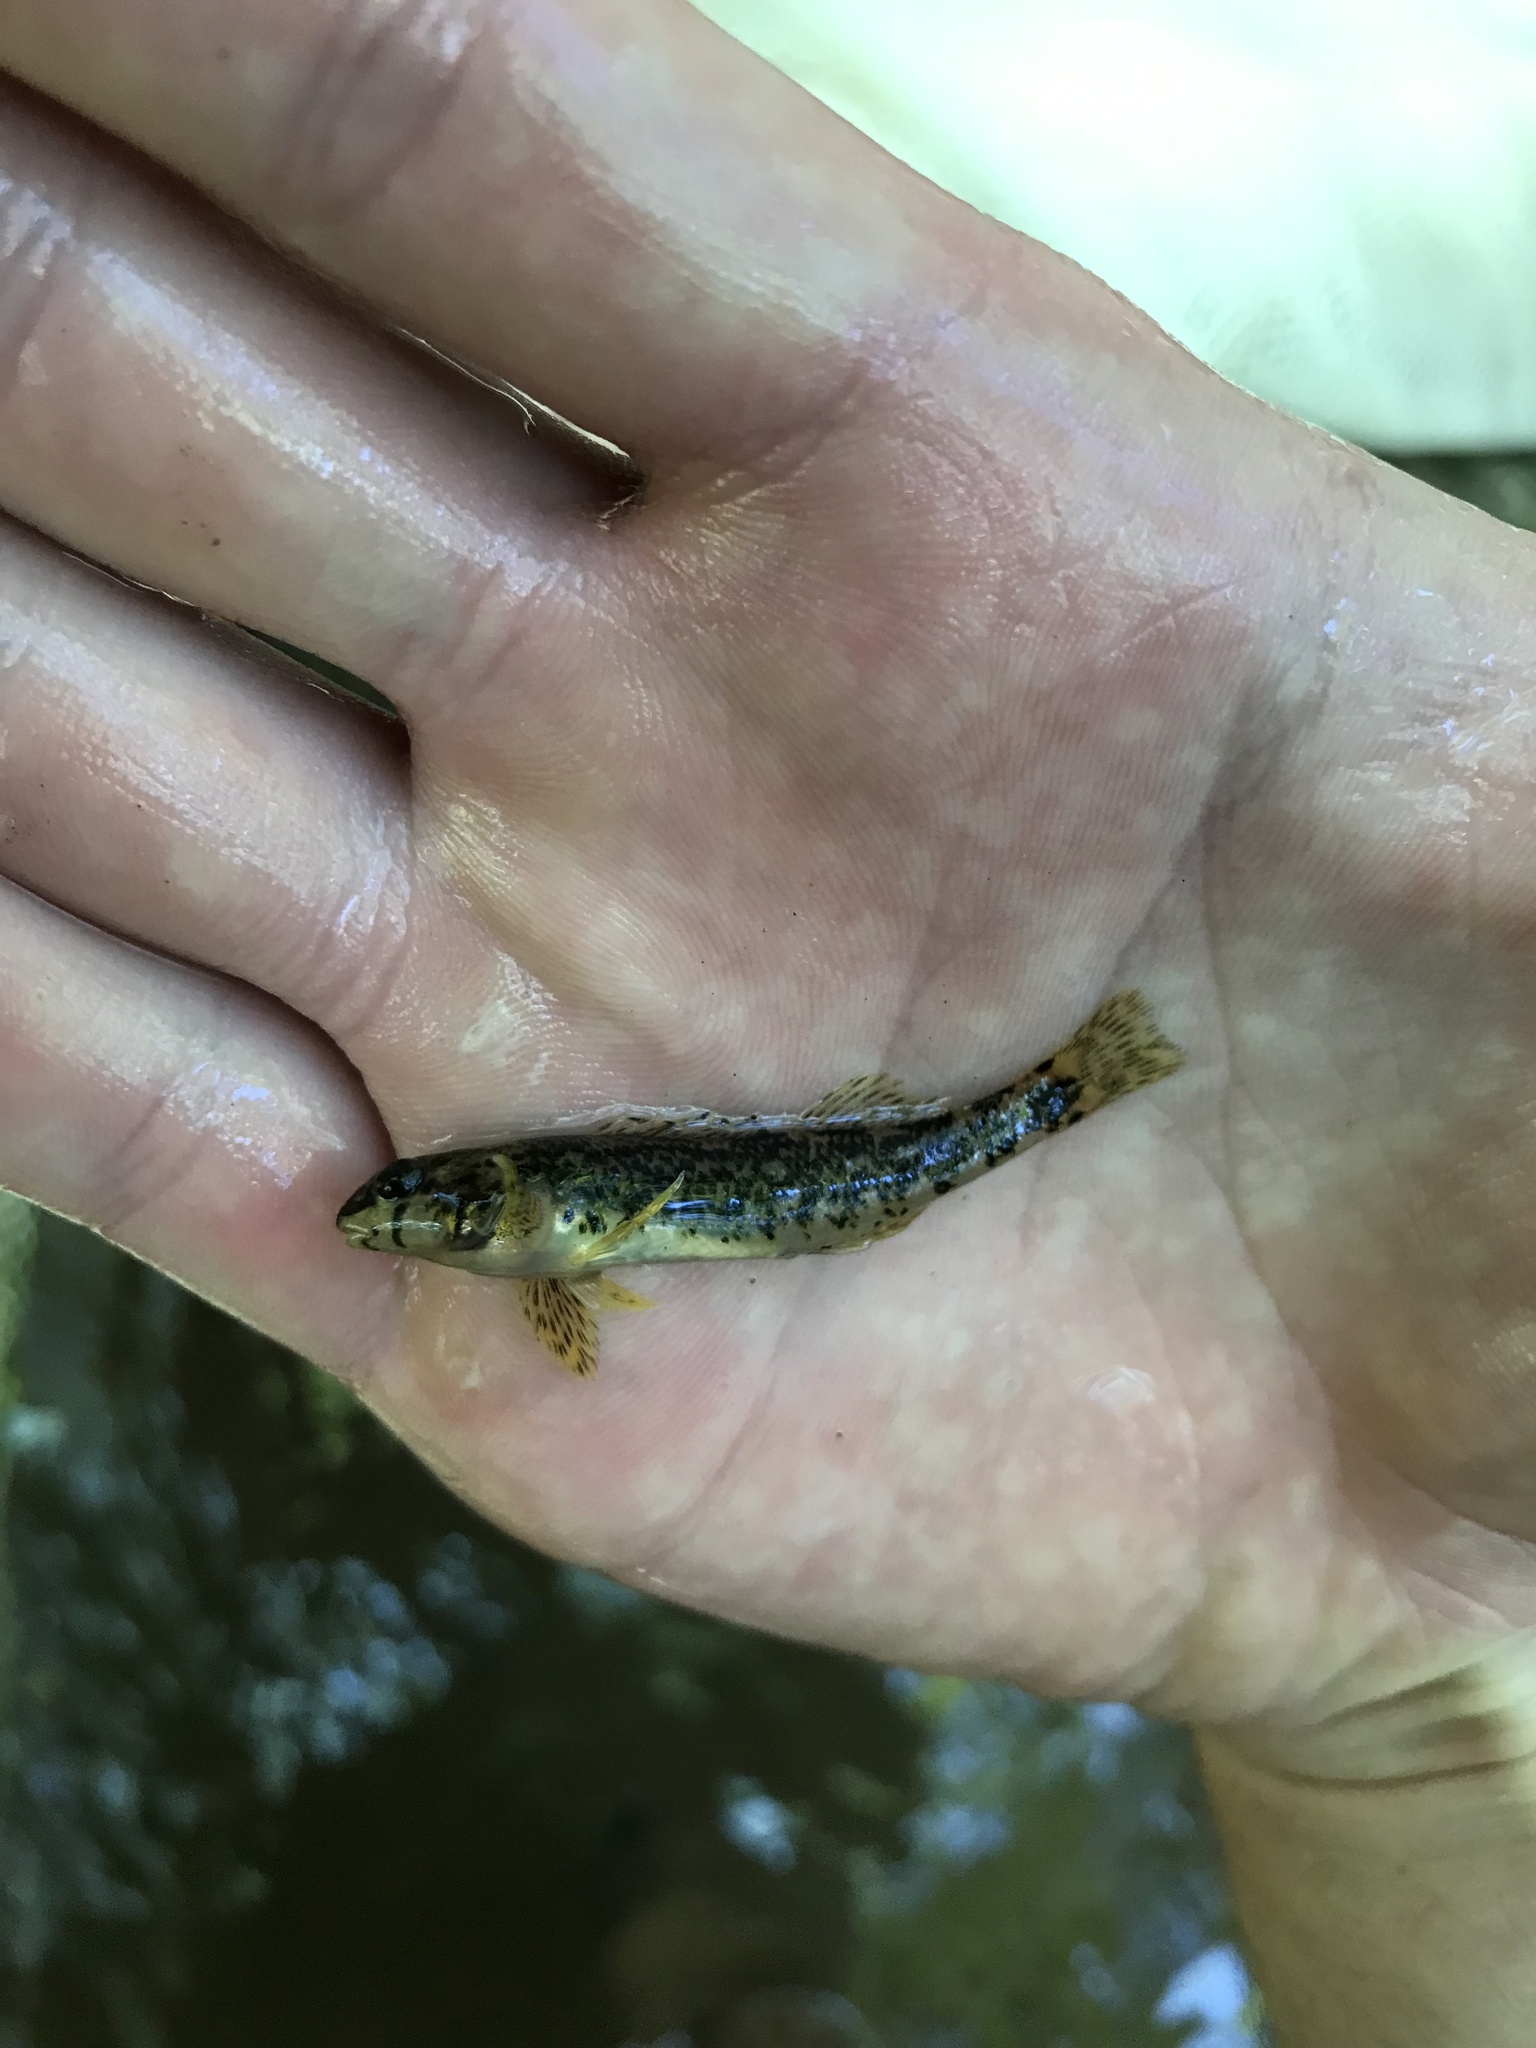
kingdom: Animalia
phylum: Chordata
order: Perciformes
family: Percidae
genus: Etheostoma
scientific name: Etheostoma zonale
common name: Banded darter
